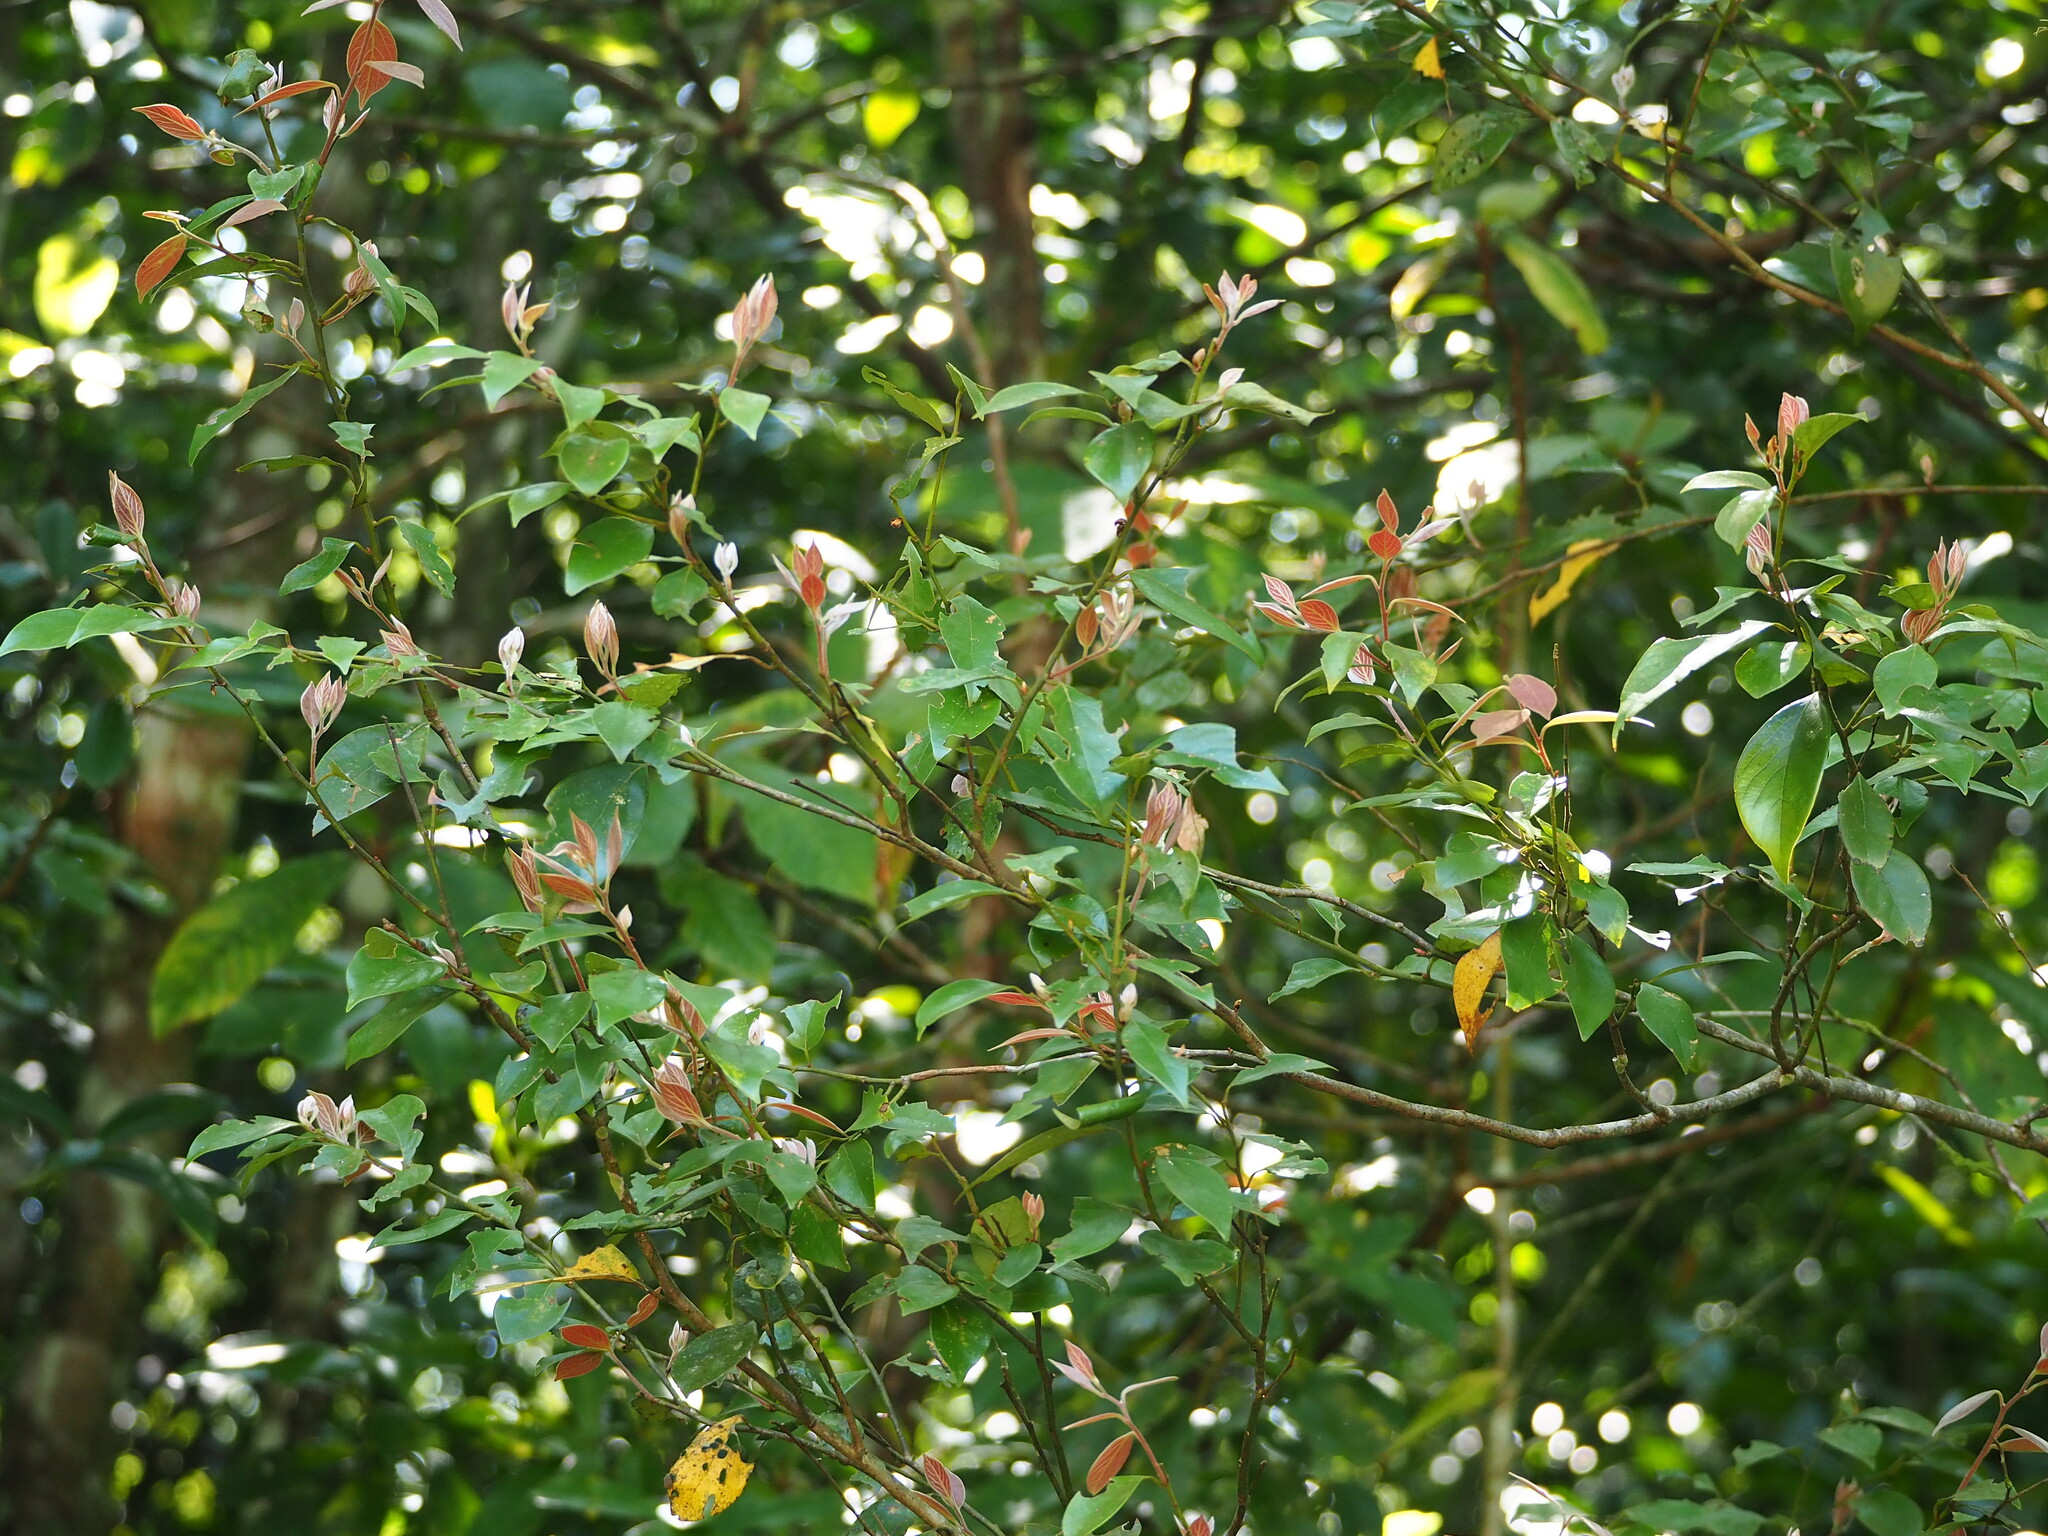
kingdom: Plantae
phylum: Tracheophyta
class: Magnoliopsida
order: Laurales
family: Lauraceae
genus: Lindera
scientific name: Lindera communis
